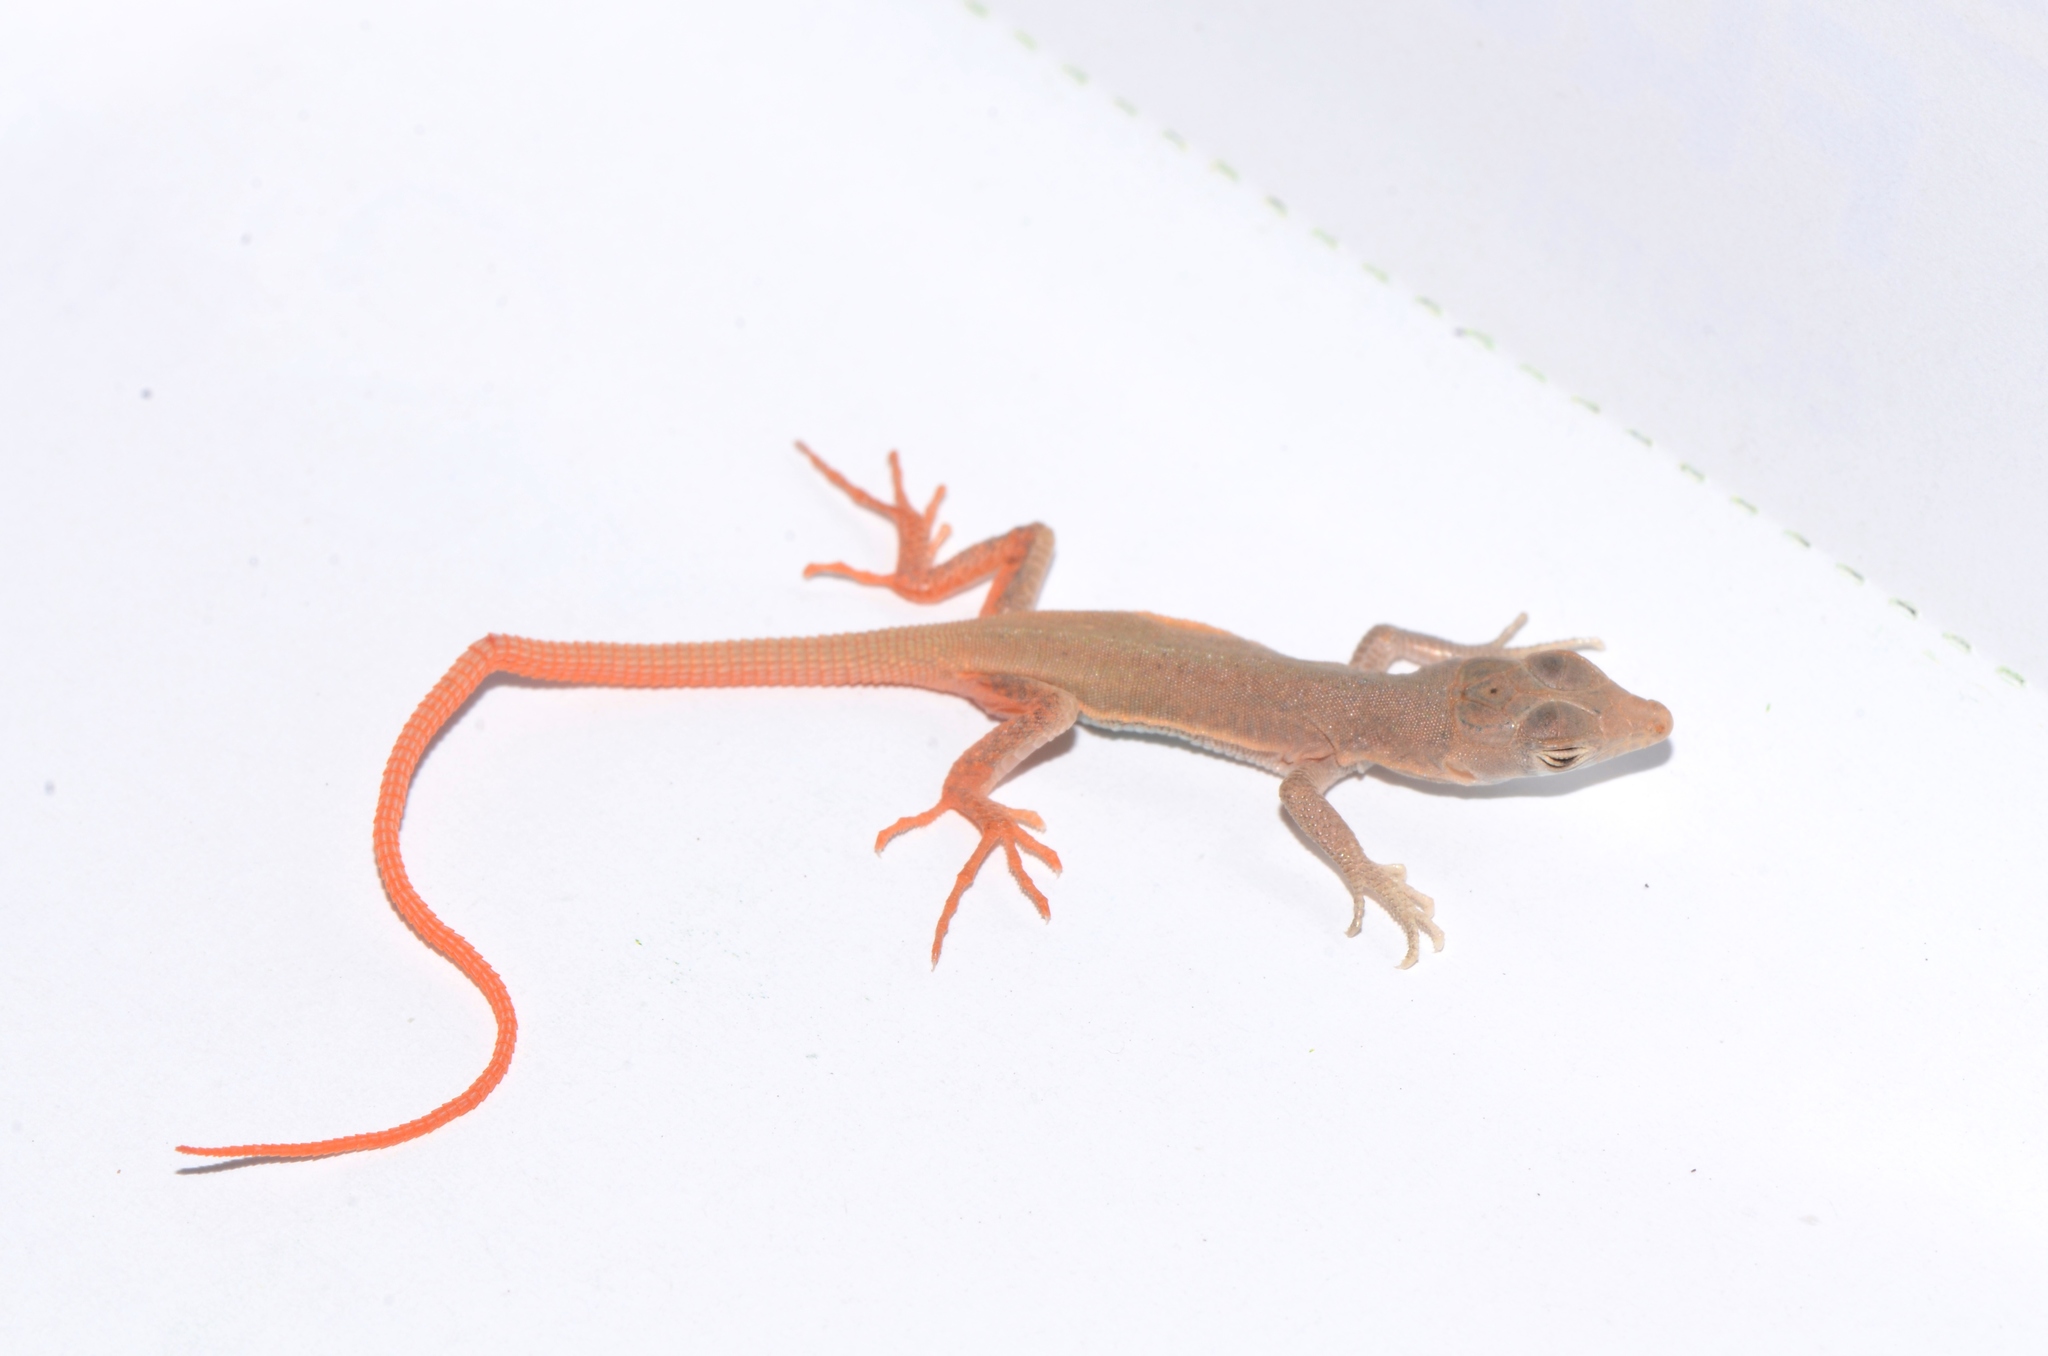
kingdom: Animalia
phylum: Chordata
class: Squamata
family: Lacertidae
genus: Pedioplanis
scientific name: Pedioplanis inornata
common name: Plain sand lizard
